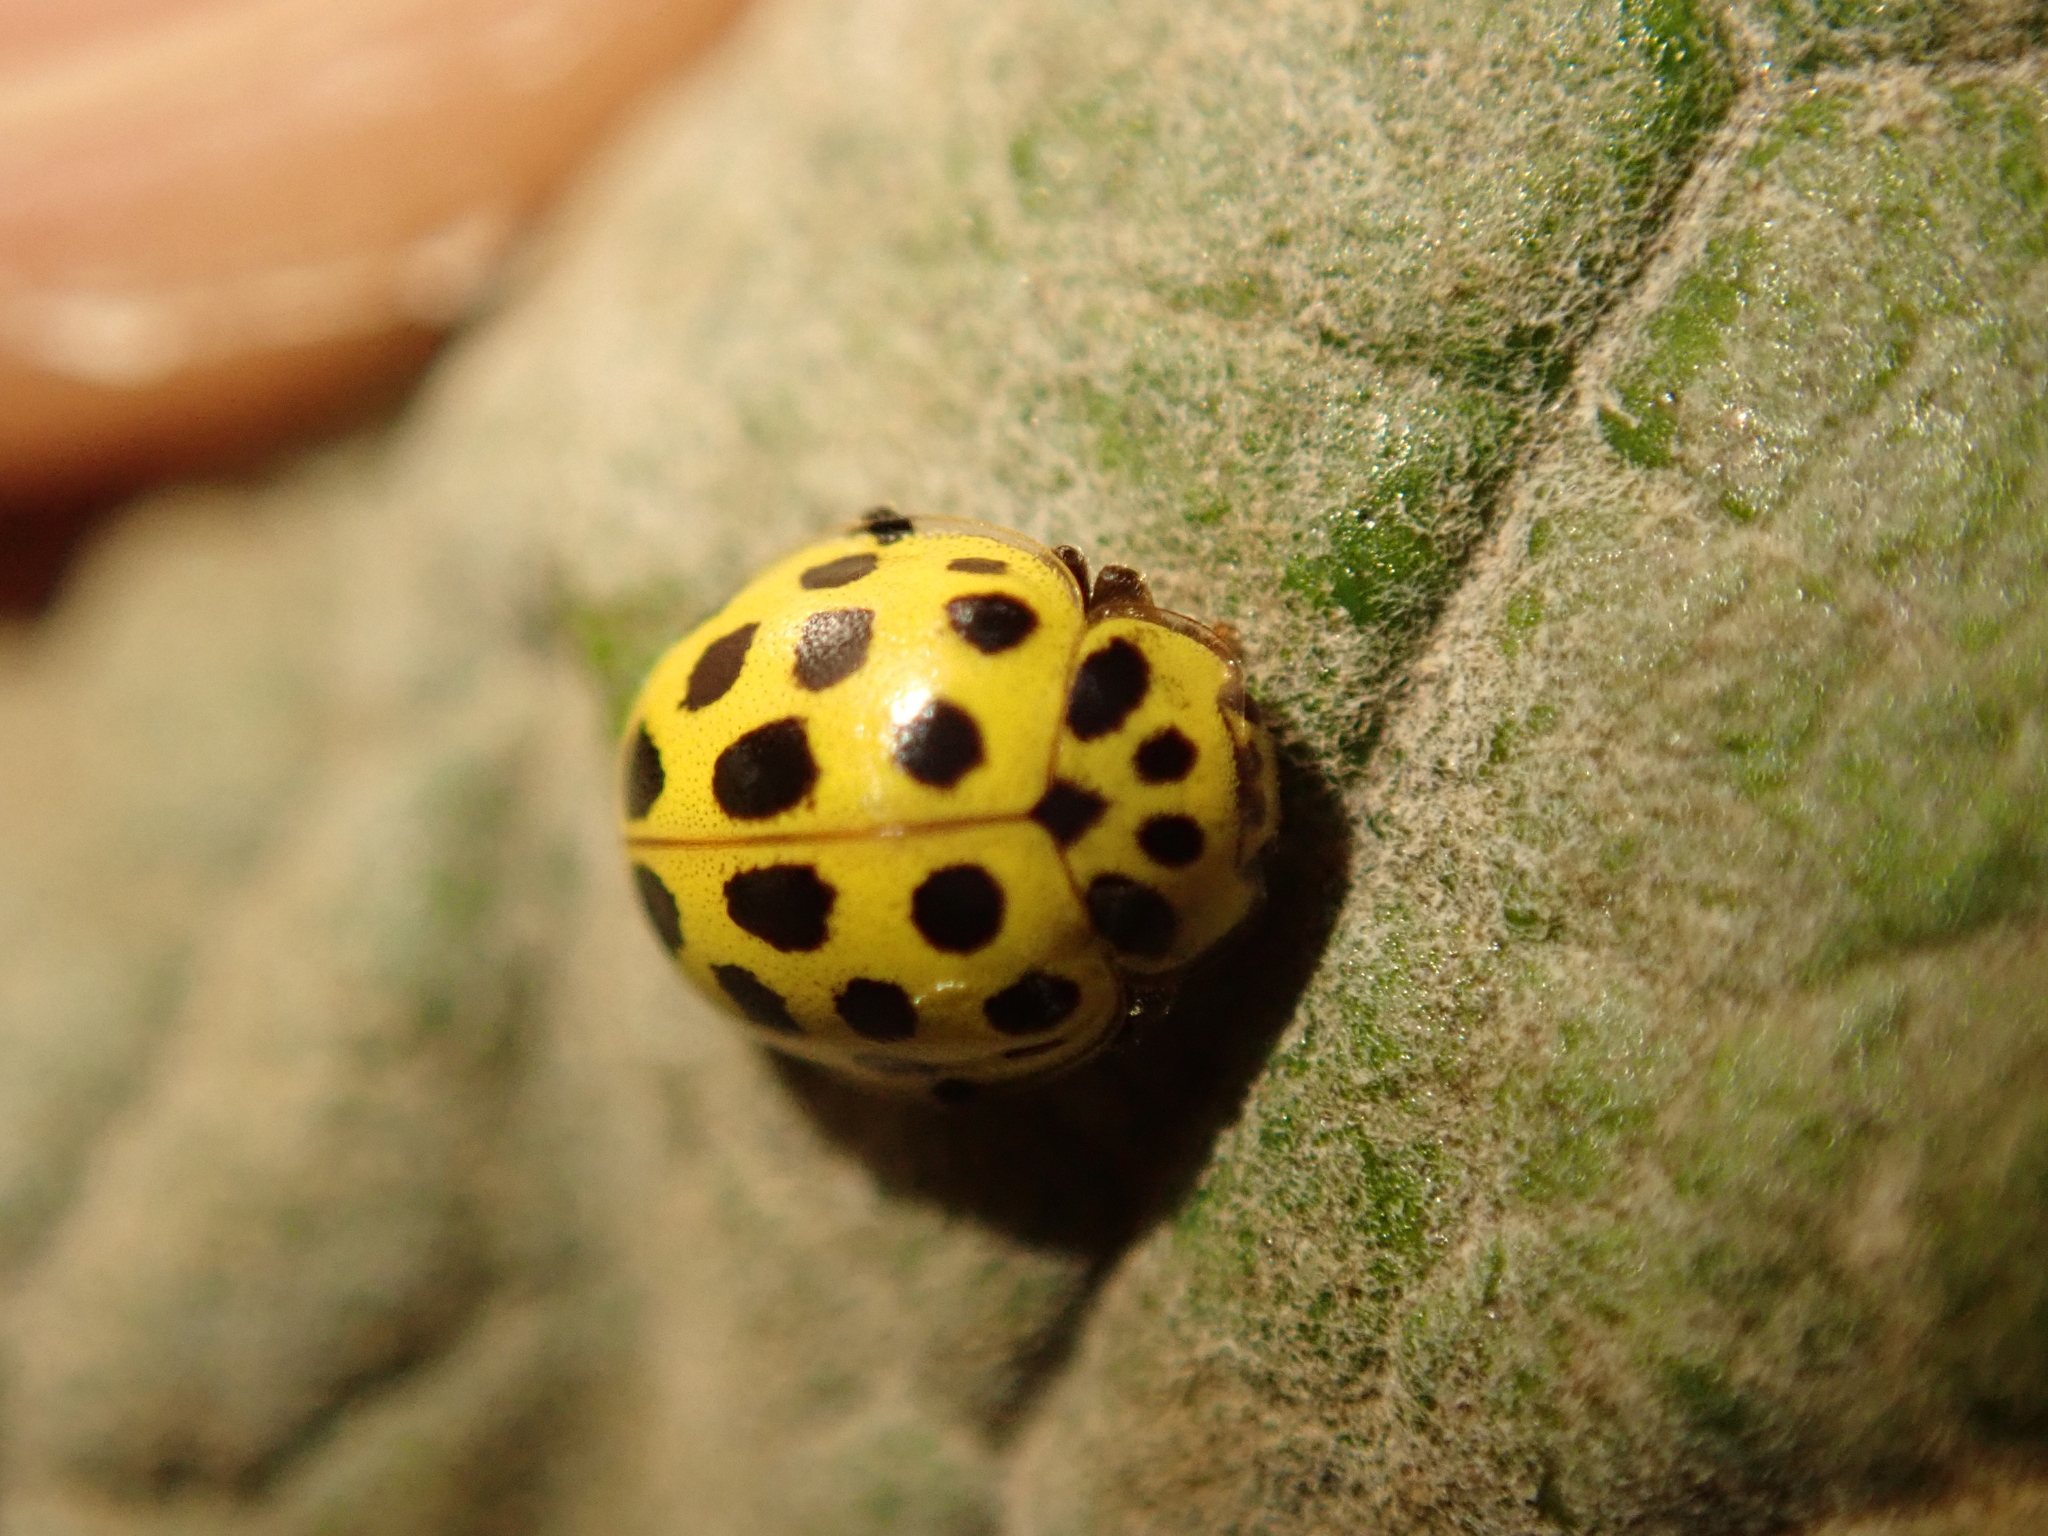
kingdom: Animalia
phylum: Arthropoda
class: Insecta
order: Coleoptera
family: Coccinellidae
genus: Psyllobora
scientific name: Psyllobora vigintiduopunctata
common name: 22-spot ladybird
